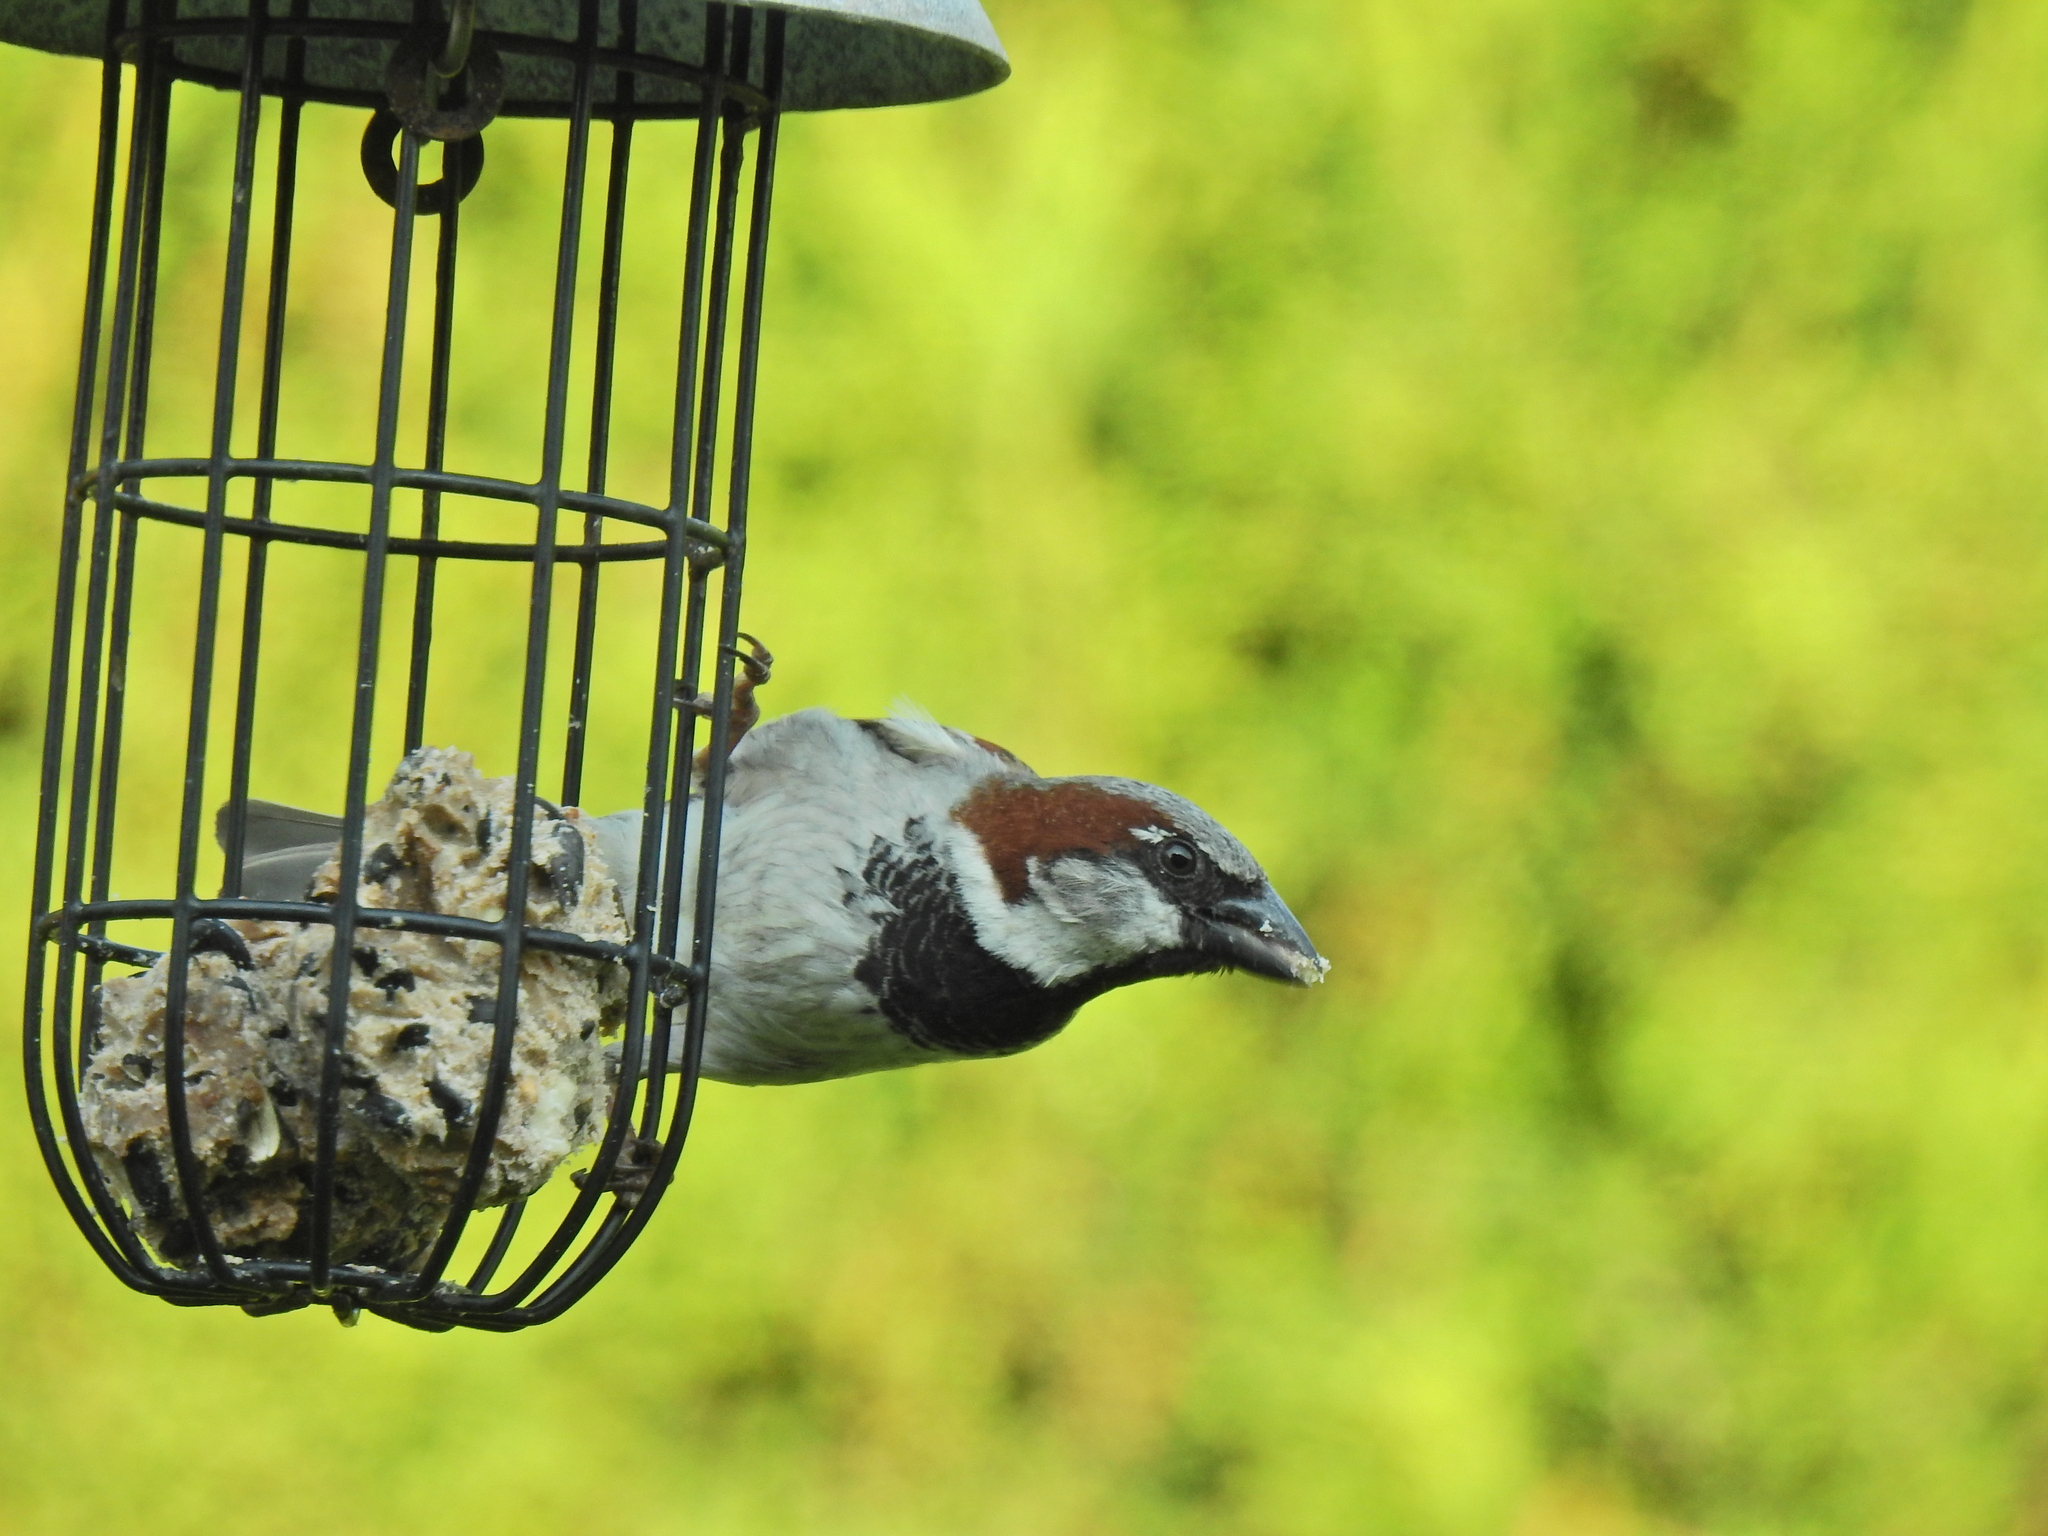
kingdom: Animalia
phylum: Chordata
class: Aves
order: Passeriformes
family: Passeridae
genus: Passer
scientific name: Passer domesticus
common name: House sparrow
